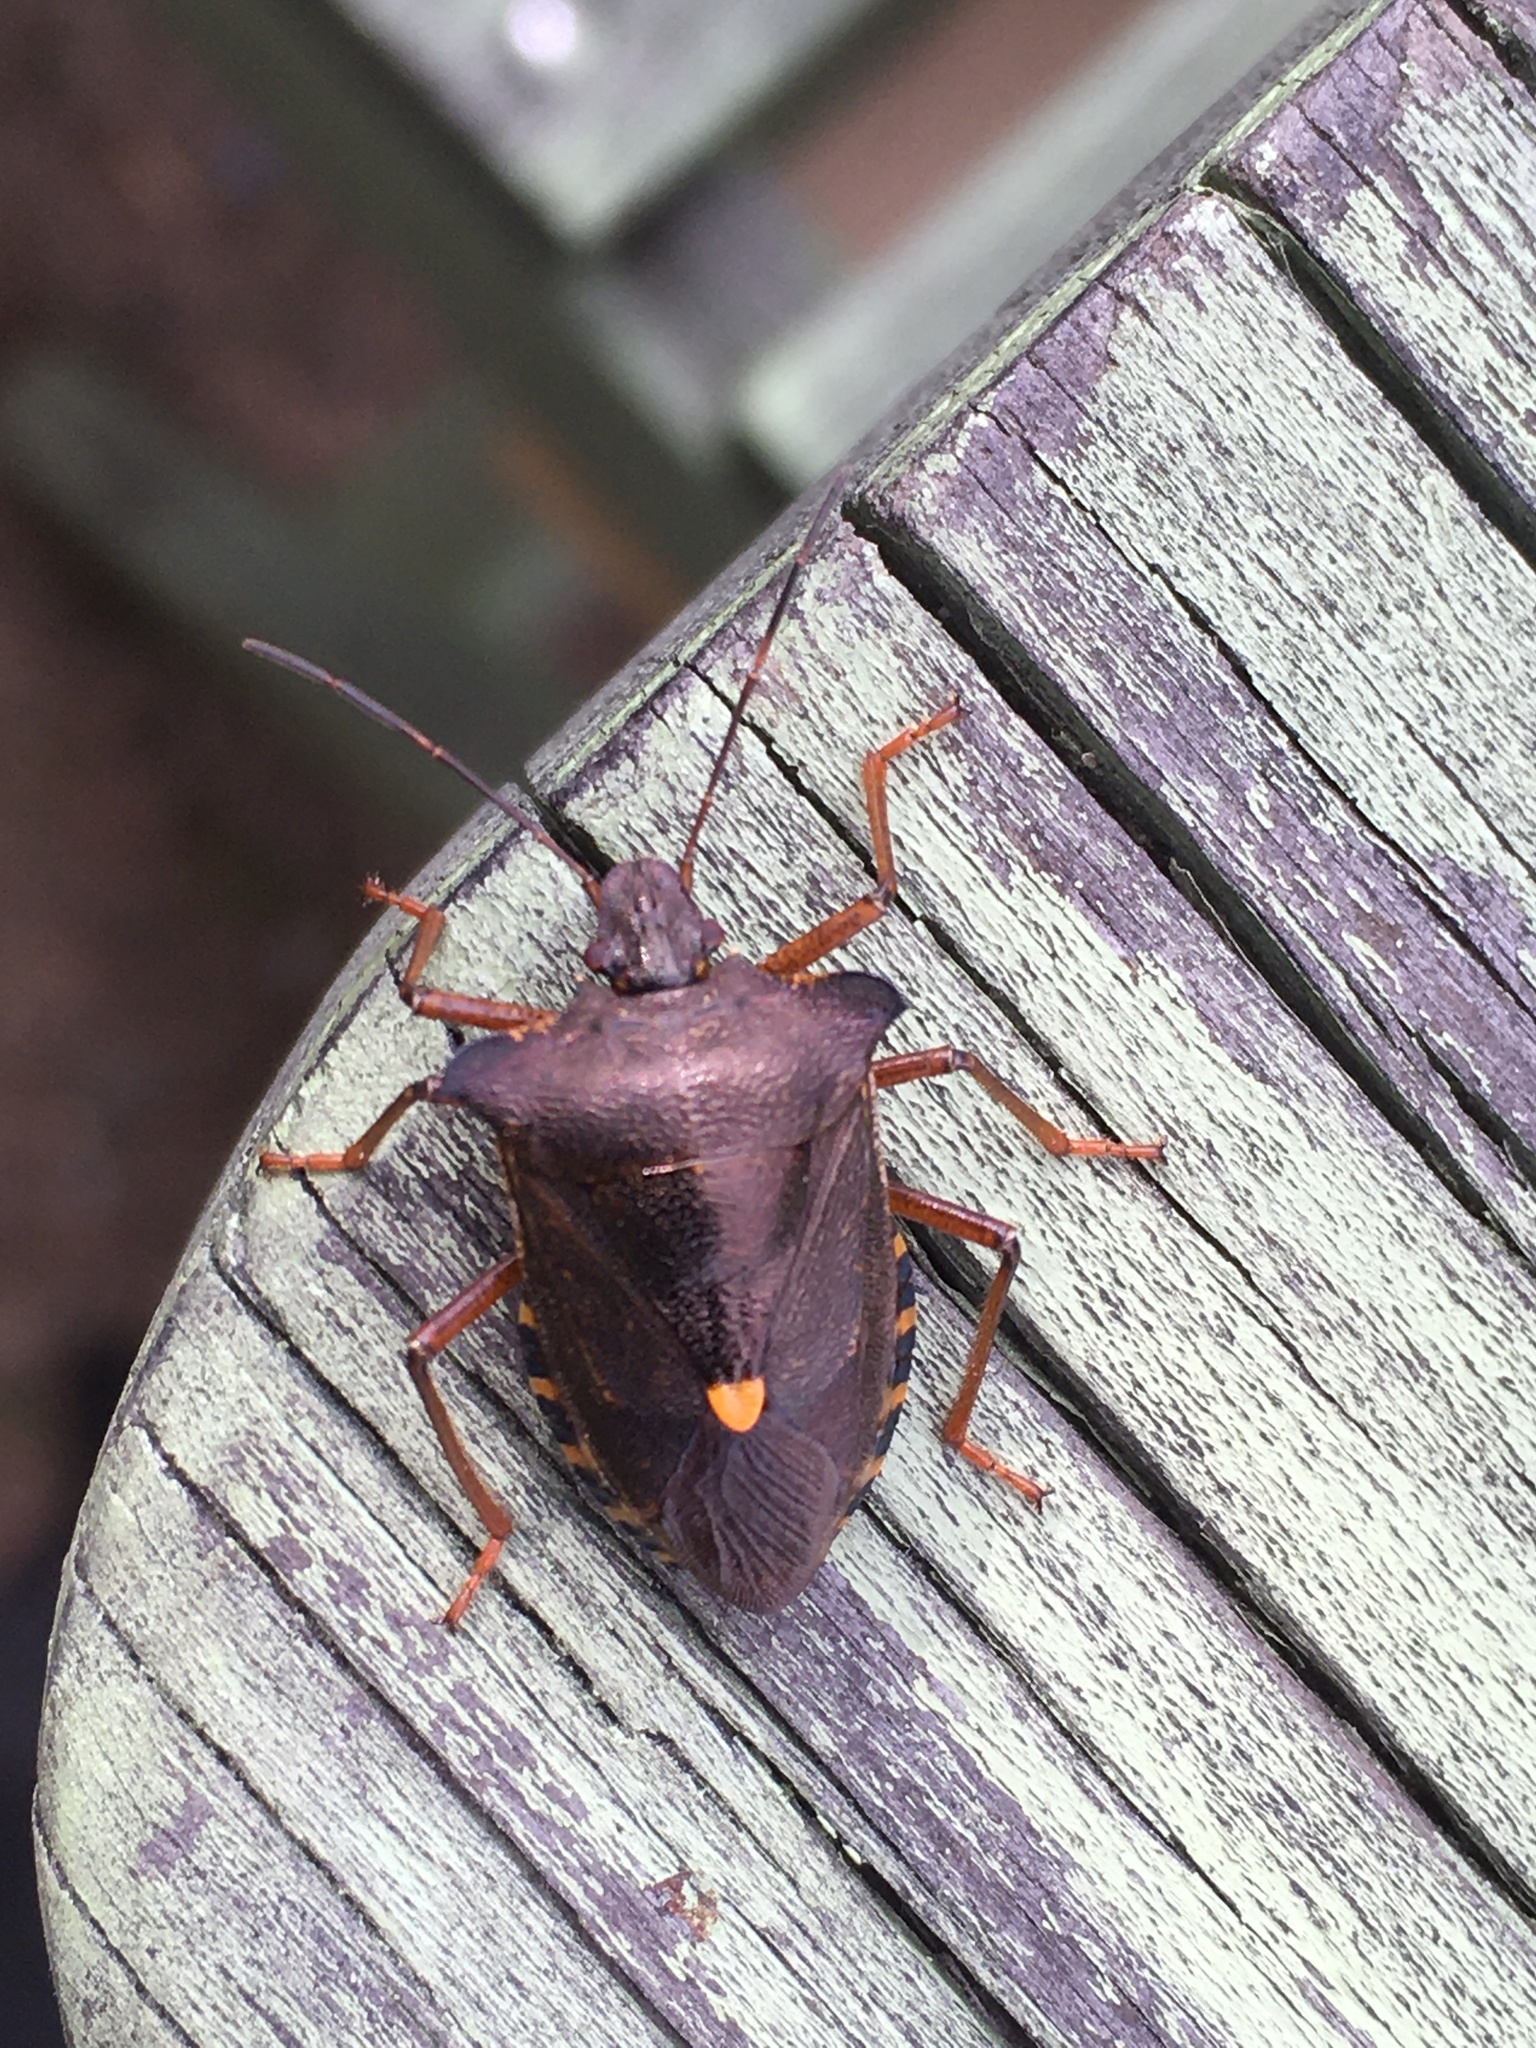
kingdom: Animalia
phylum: Arthropoda
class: Insecta
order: Hemiptera
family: Pentatomidae
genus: Pentatoma
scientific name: Pentatoma rufipes
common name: Forest bug
